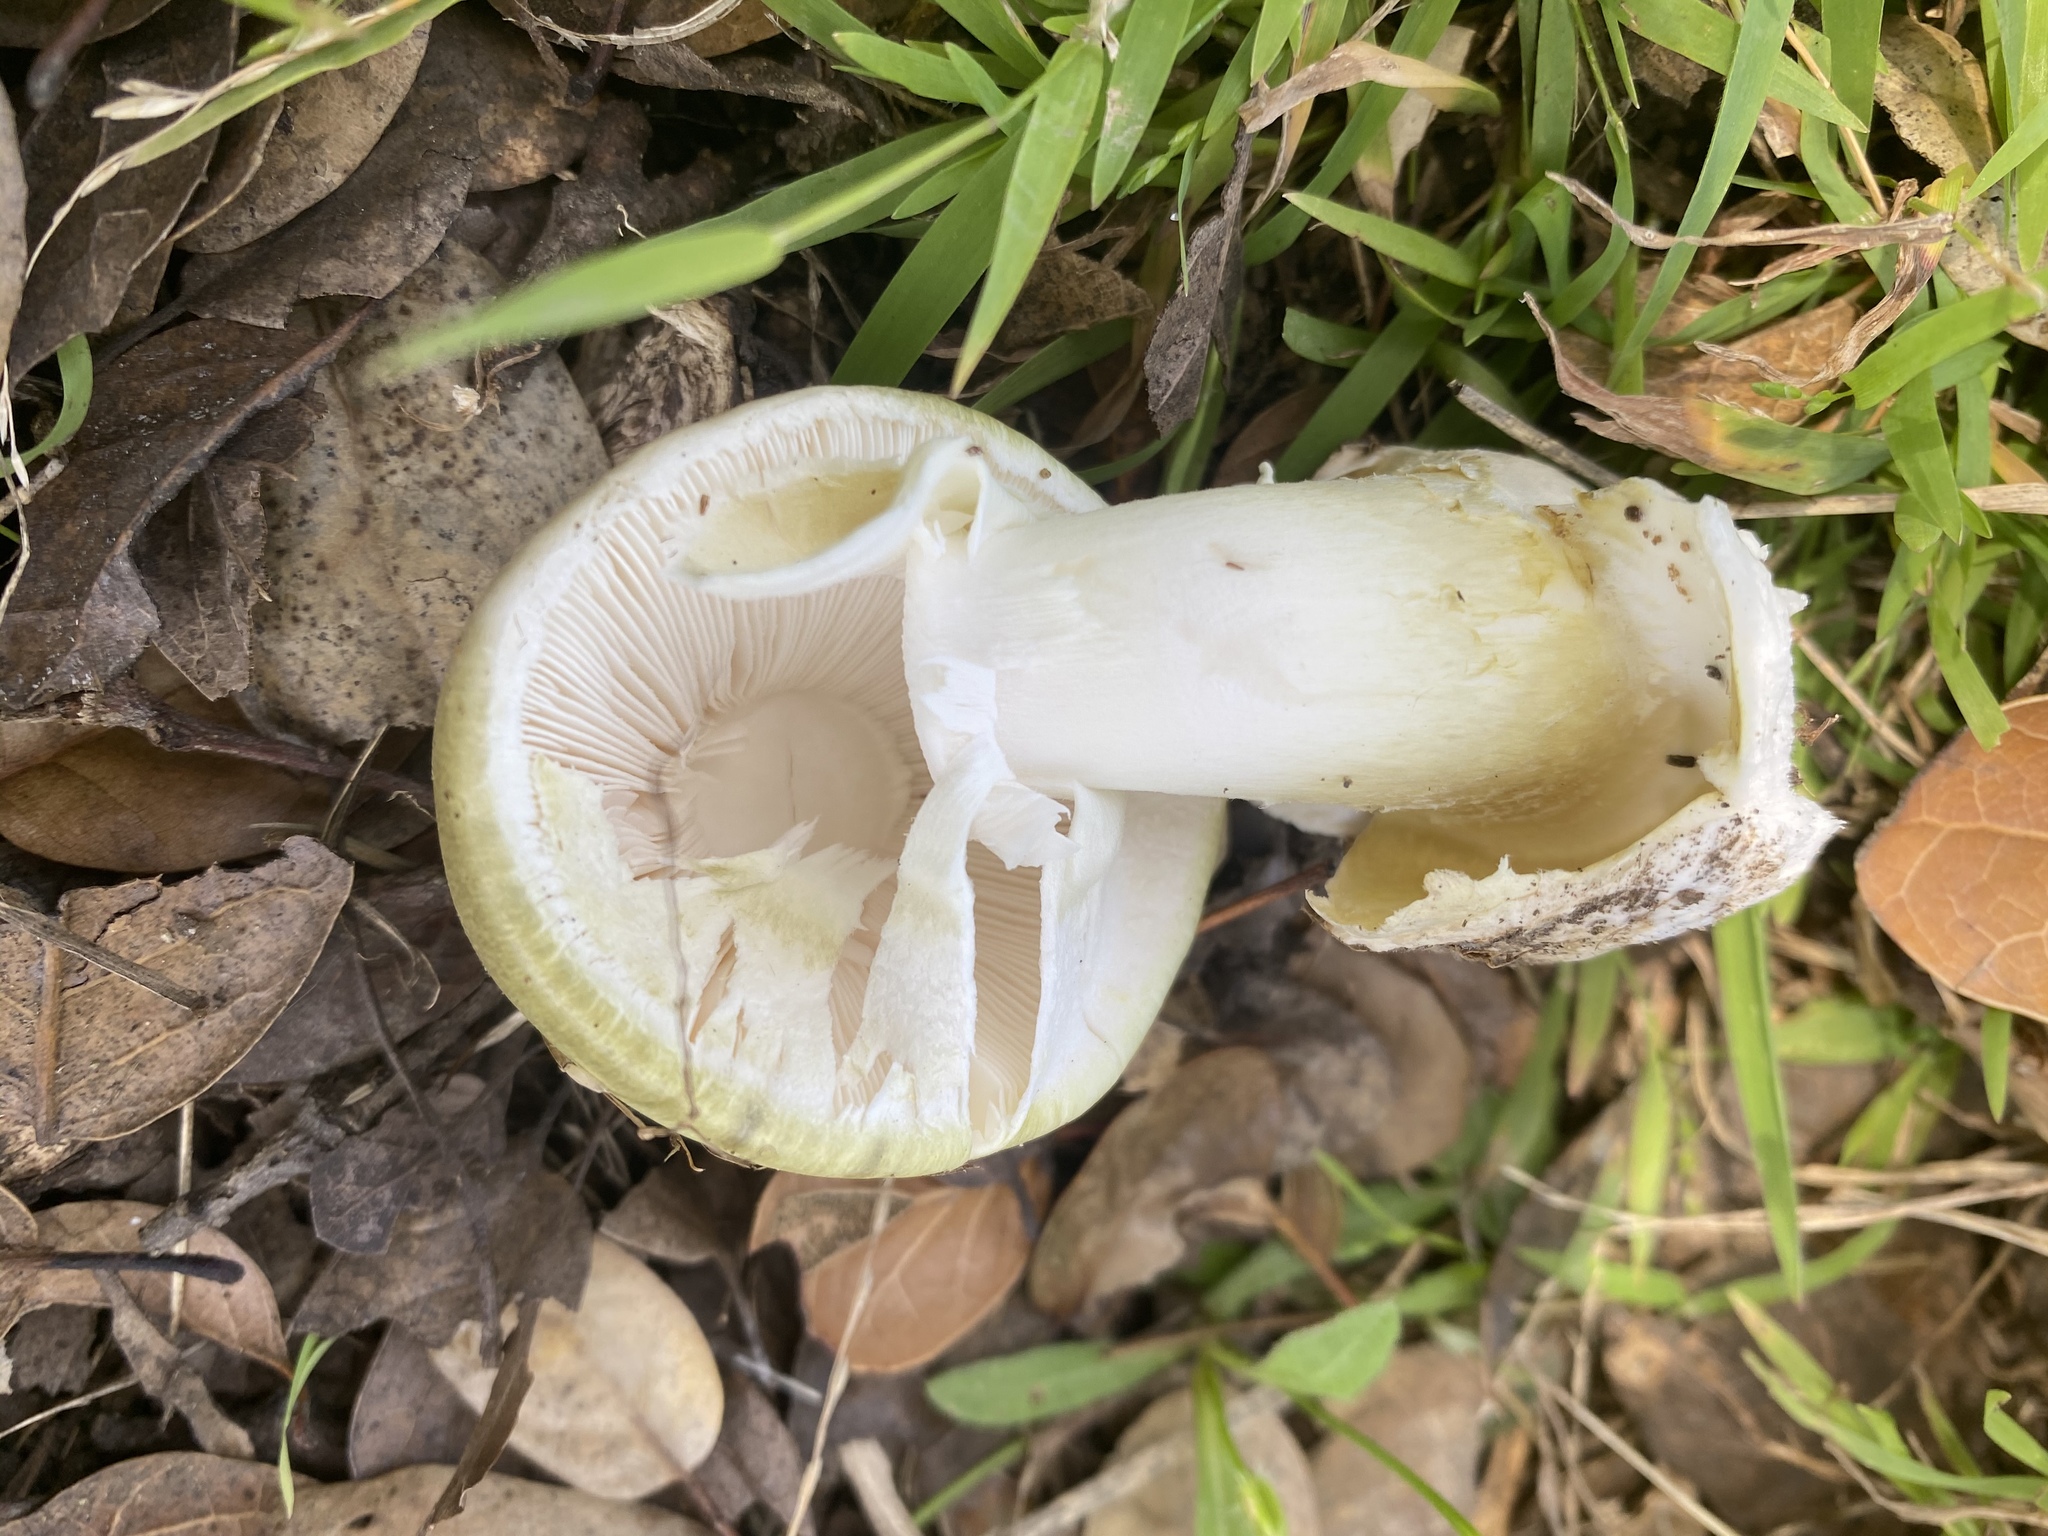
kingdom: Fungi
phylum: Basidiomycota
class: Agaricomycetes
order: Agaricales
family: Amanitaceae
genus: Amanita
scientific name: Amanita phalloides
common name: Death cap
